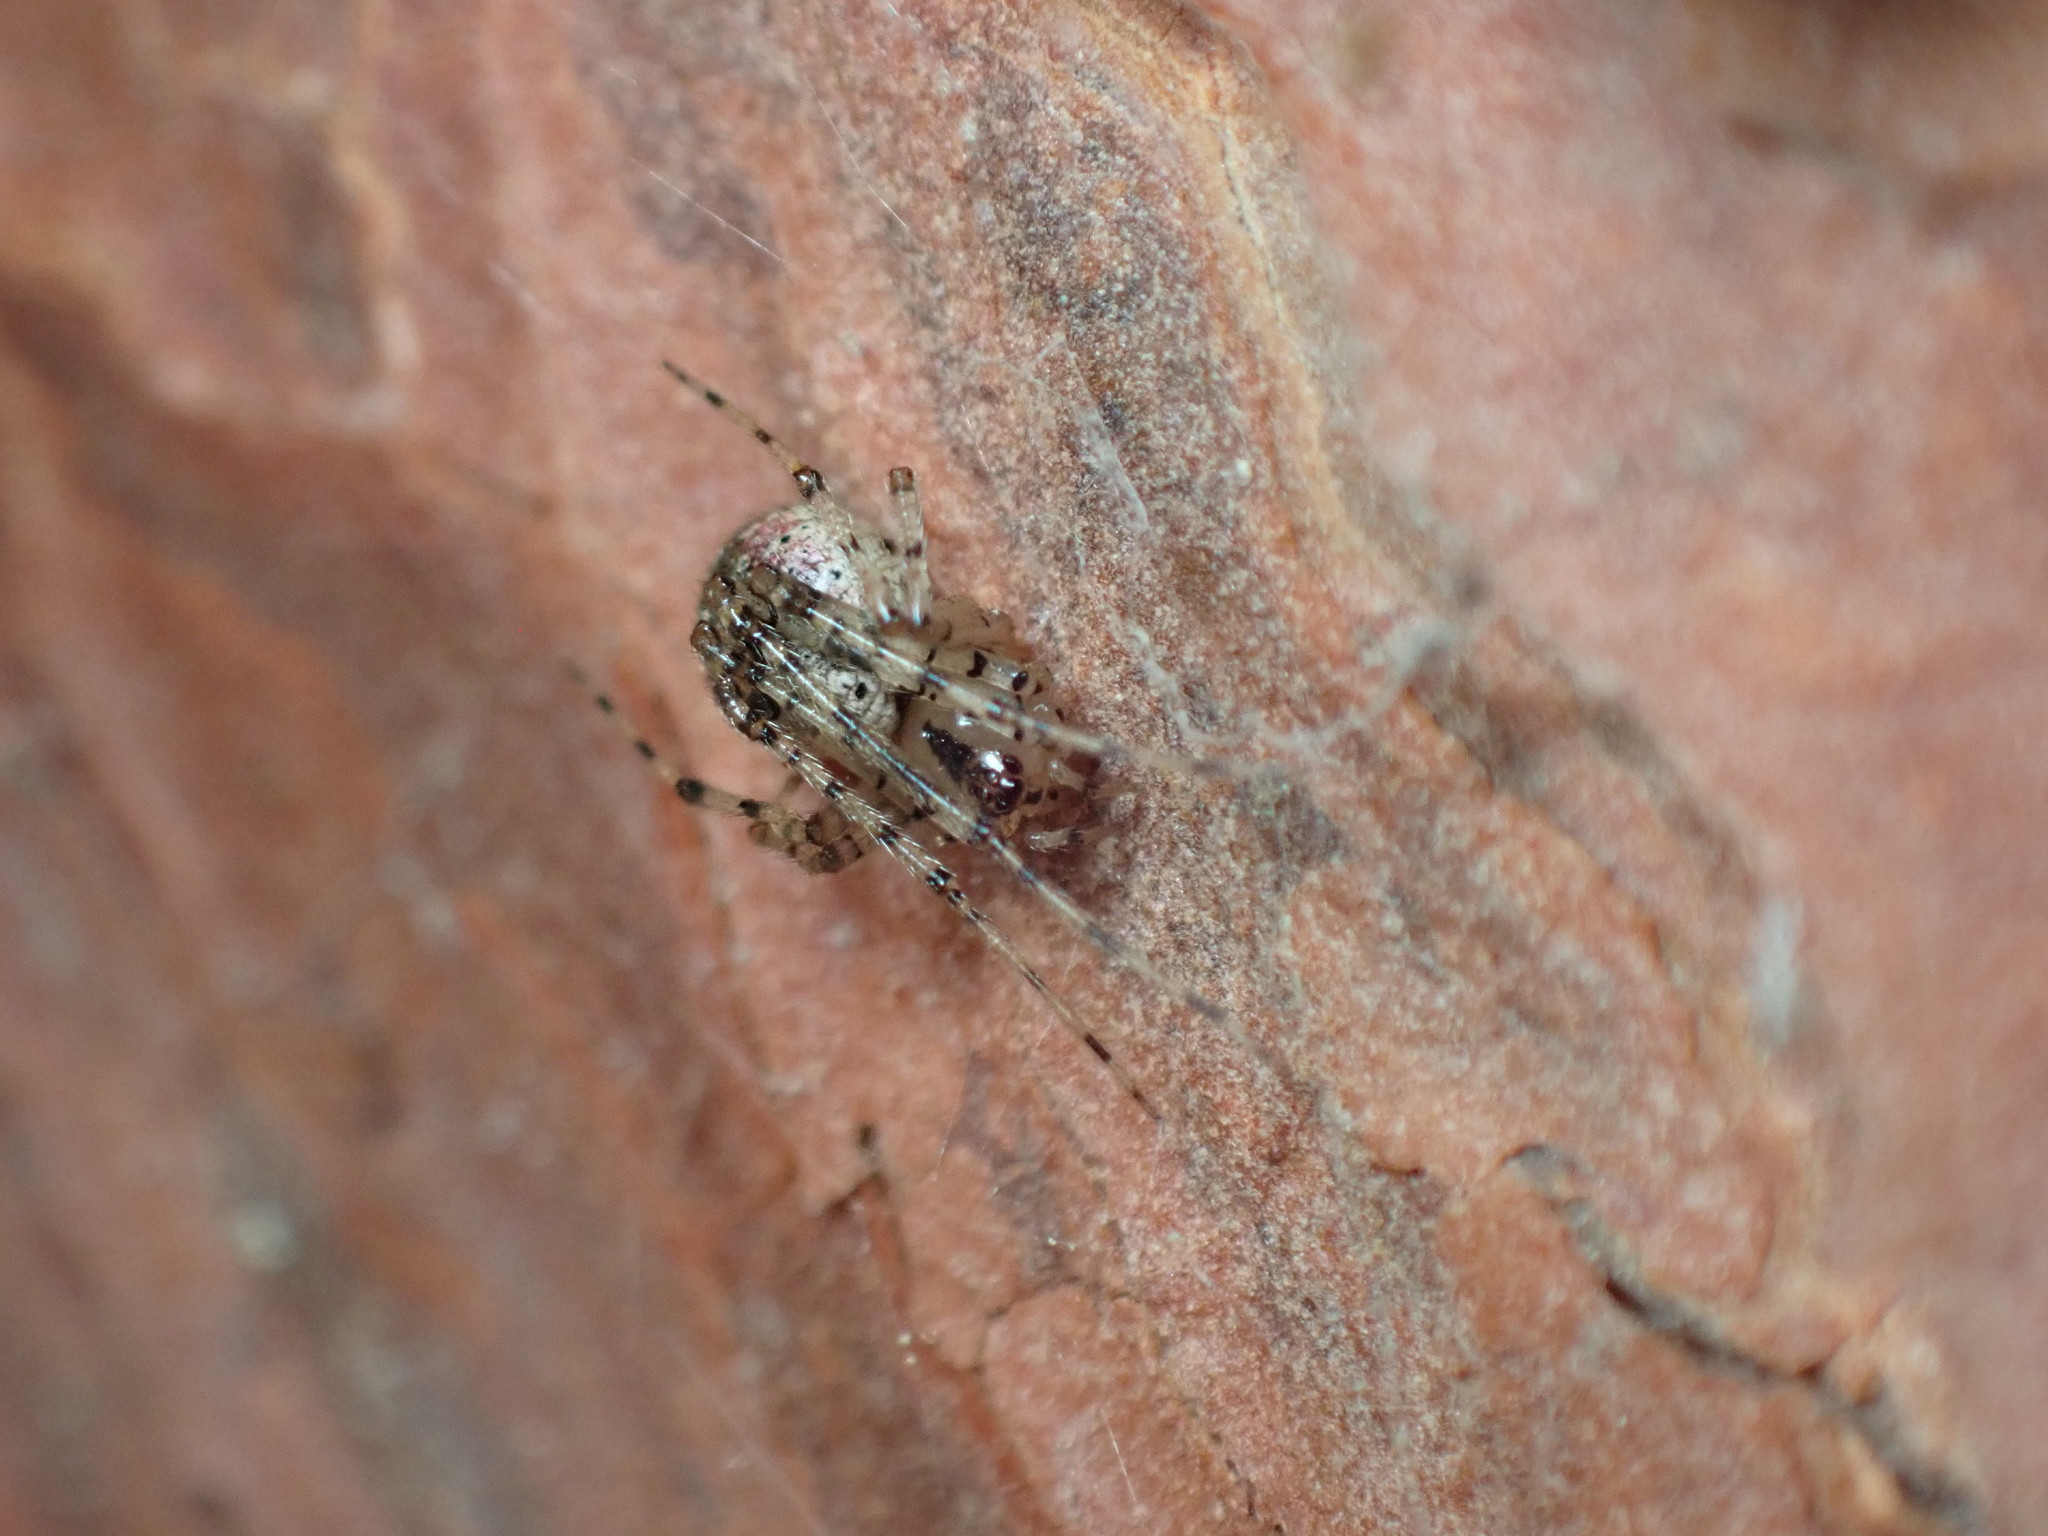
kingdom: Animalia
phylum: Arthropoda
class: Arachnida
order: Araneae
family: Theridiidae
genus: Platnickina
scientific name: Platnickina tincta
